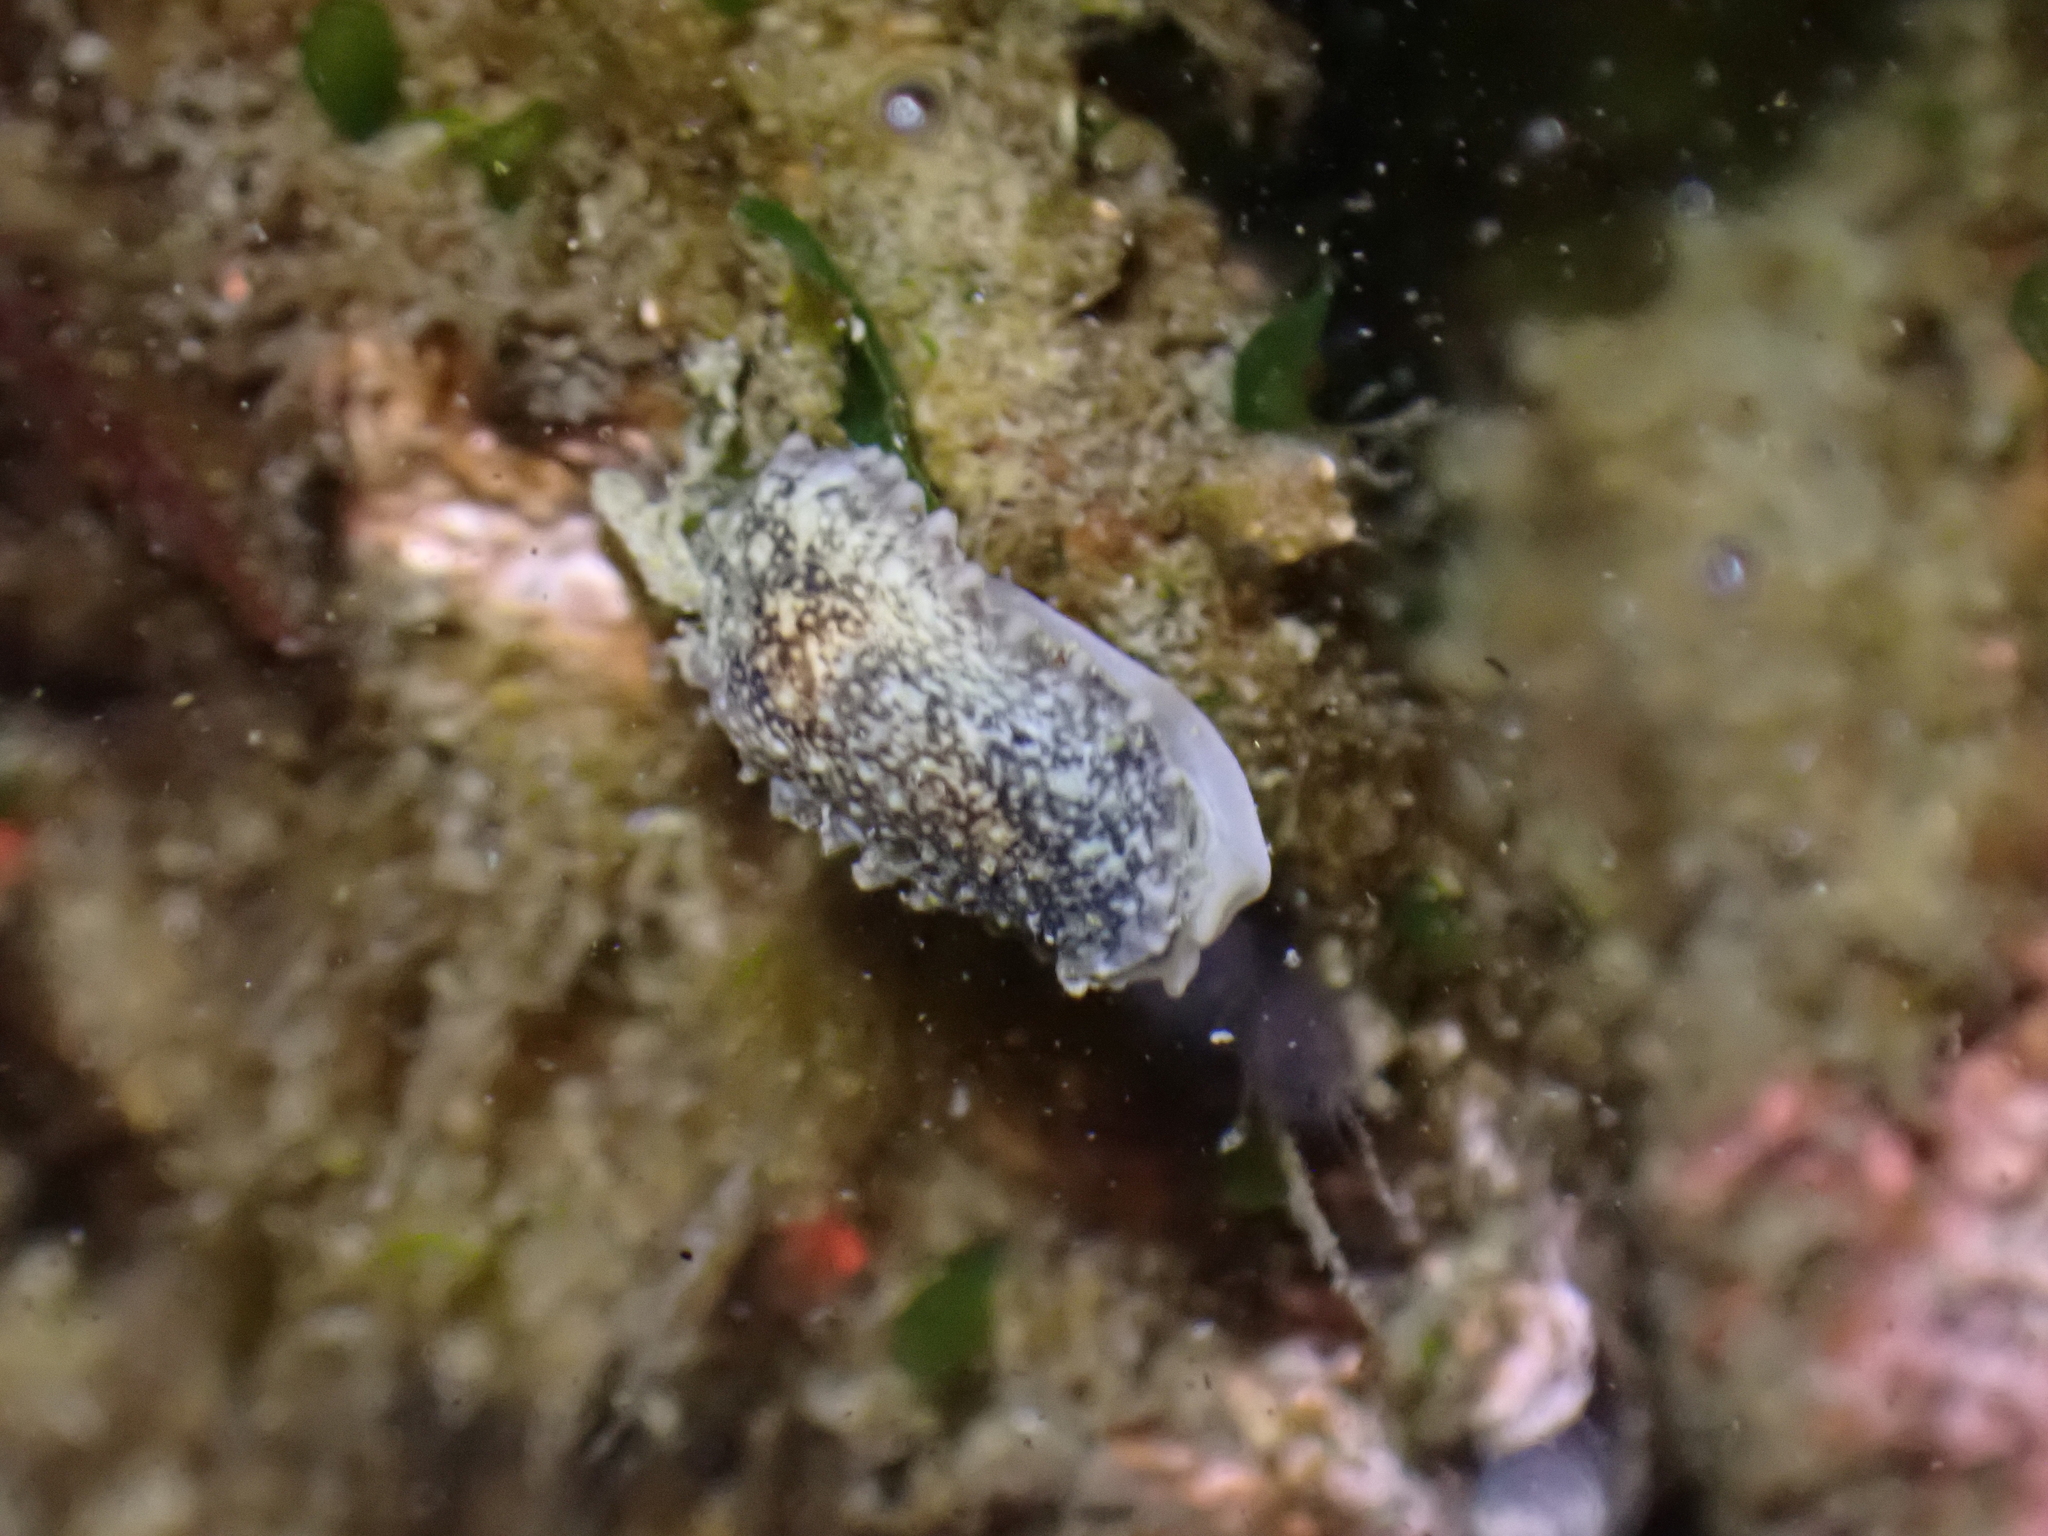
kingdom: Animalia
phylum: Mollusca
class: Gastropoda
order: Systellommatophora
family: Onchidiidae
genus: Onchidella
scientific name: Onchidella carpenteri
